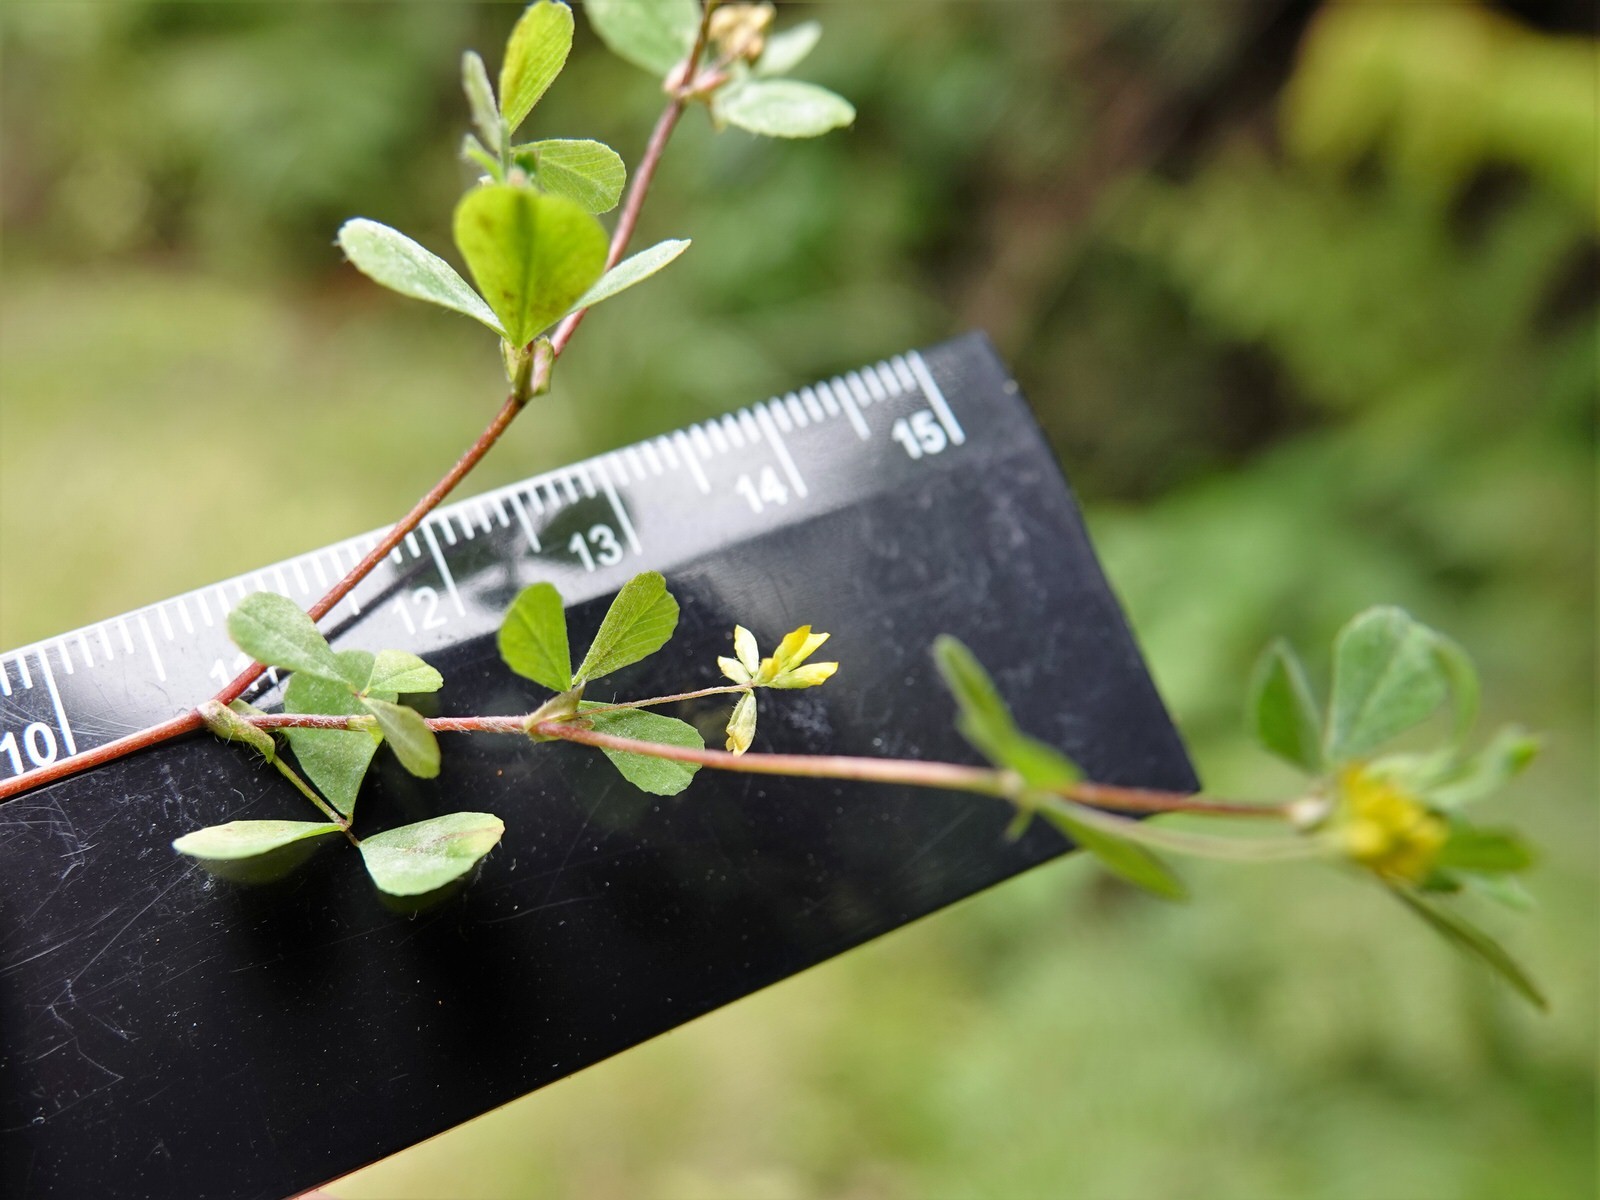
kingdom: Plantae
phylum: Tracheophyta
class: Magnoliopsida
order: Fabales
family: Fabaceae
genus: Trifolium
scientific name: Trifolium dubium
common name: Suckling clover
